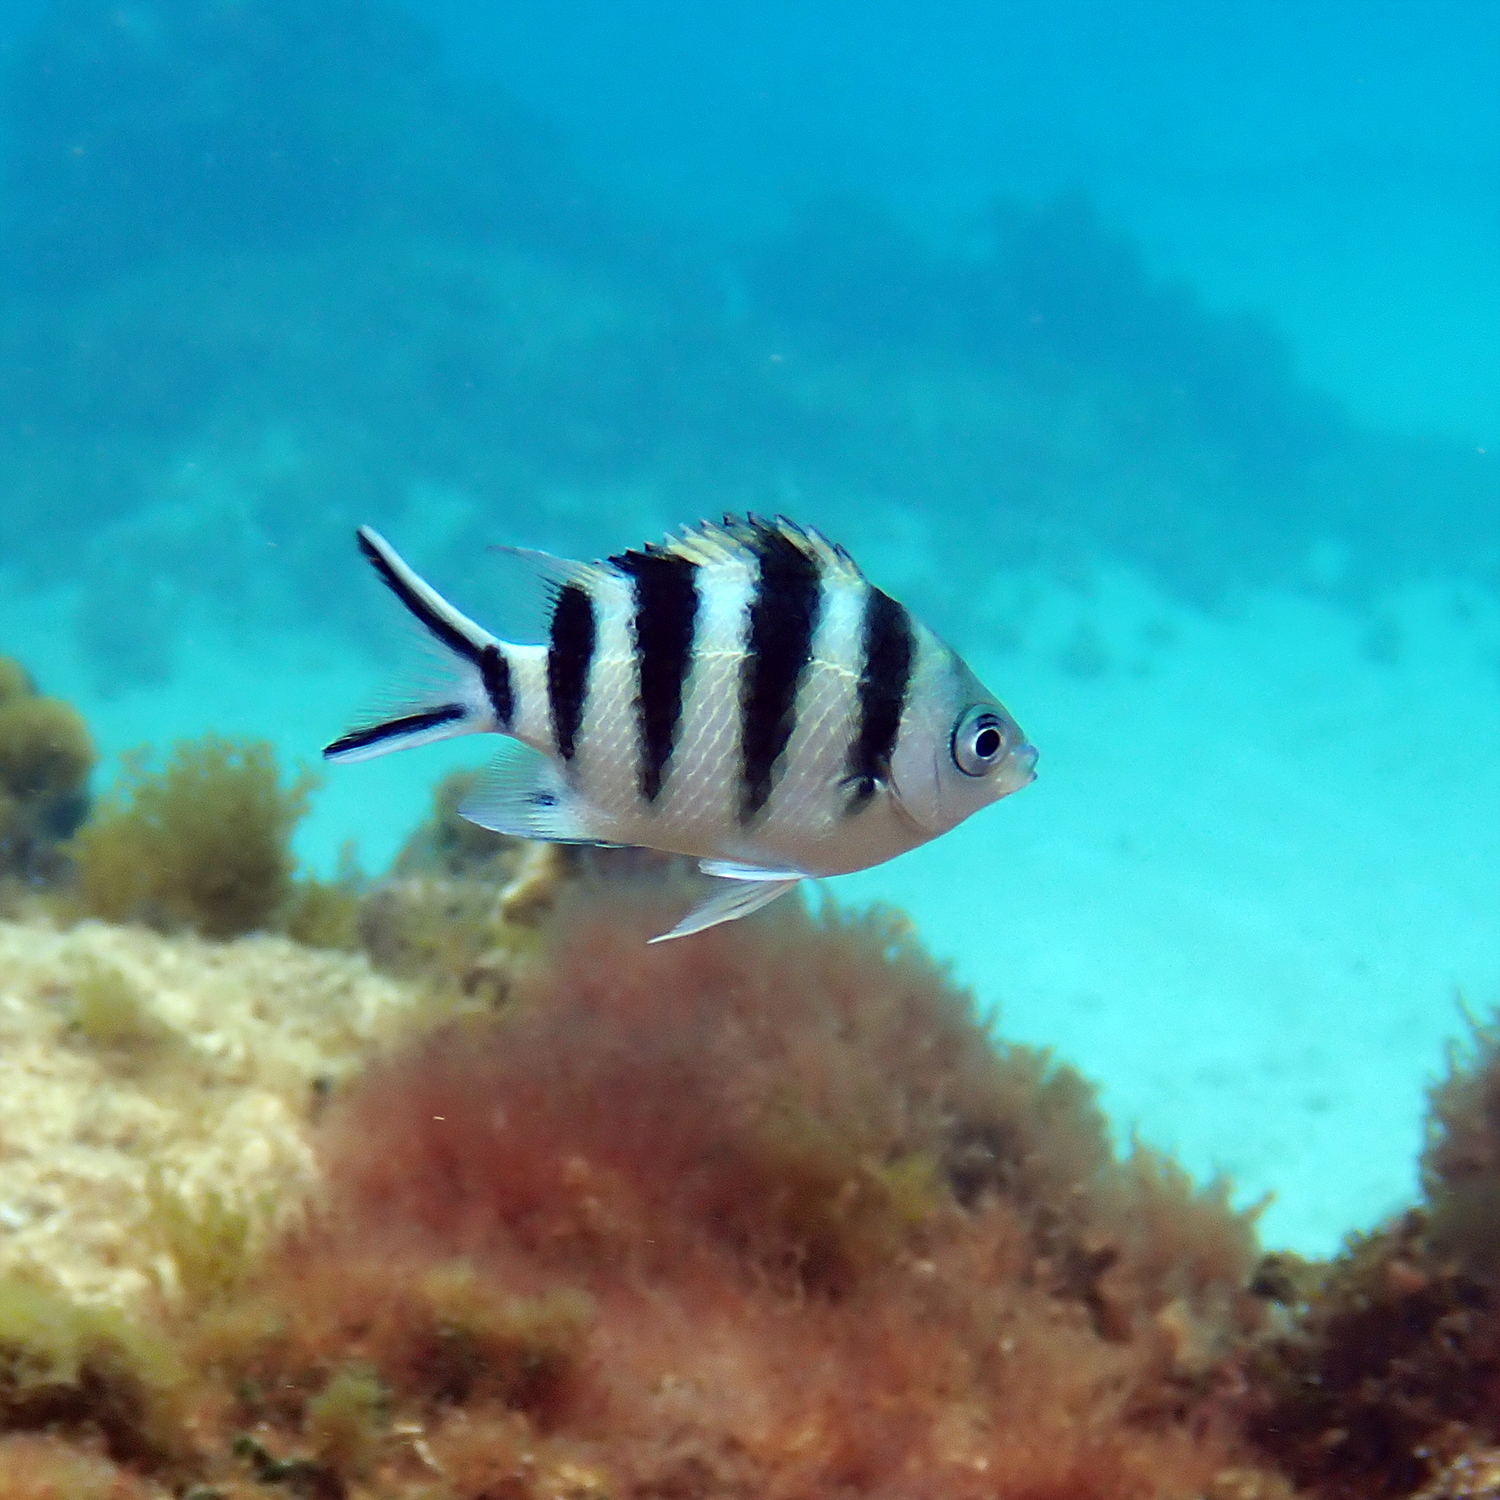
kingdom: Animalia
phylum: Chordata
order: Perciformes
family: Pomacentridae
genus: Abudefduf
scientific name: Abudefduf sexfasciatus
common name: Scissortail sergeant
